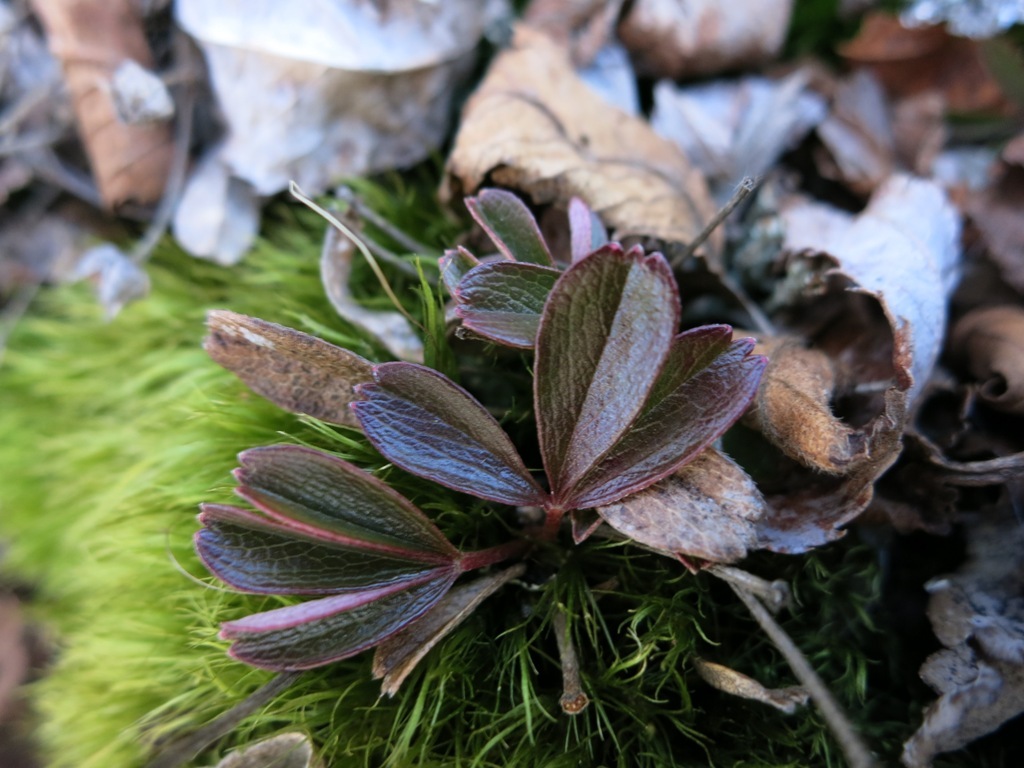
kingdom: Plantae
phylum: Tracheophyta
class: Magnoliopsida
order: Rosales
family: Rosaceae
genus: Sibbaldia
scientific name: Sibbaldia tridentata
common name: Three-toothed cinquefoil
